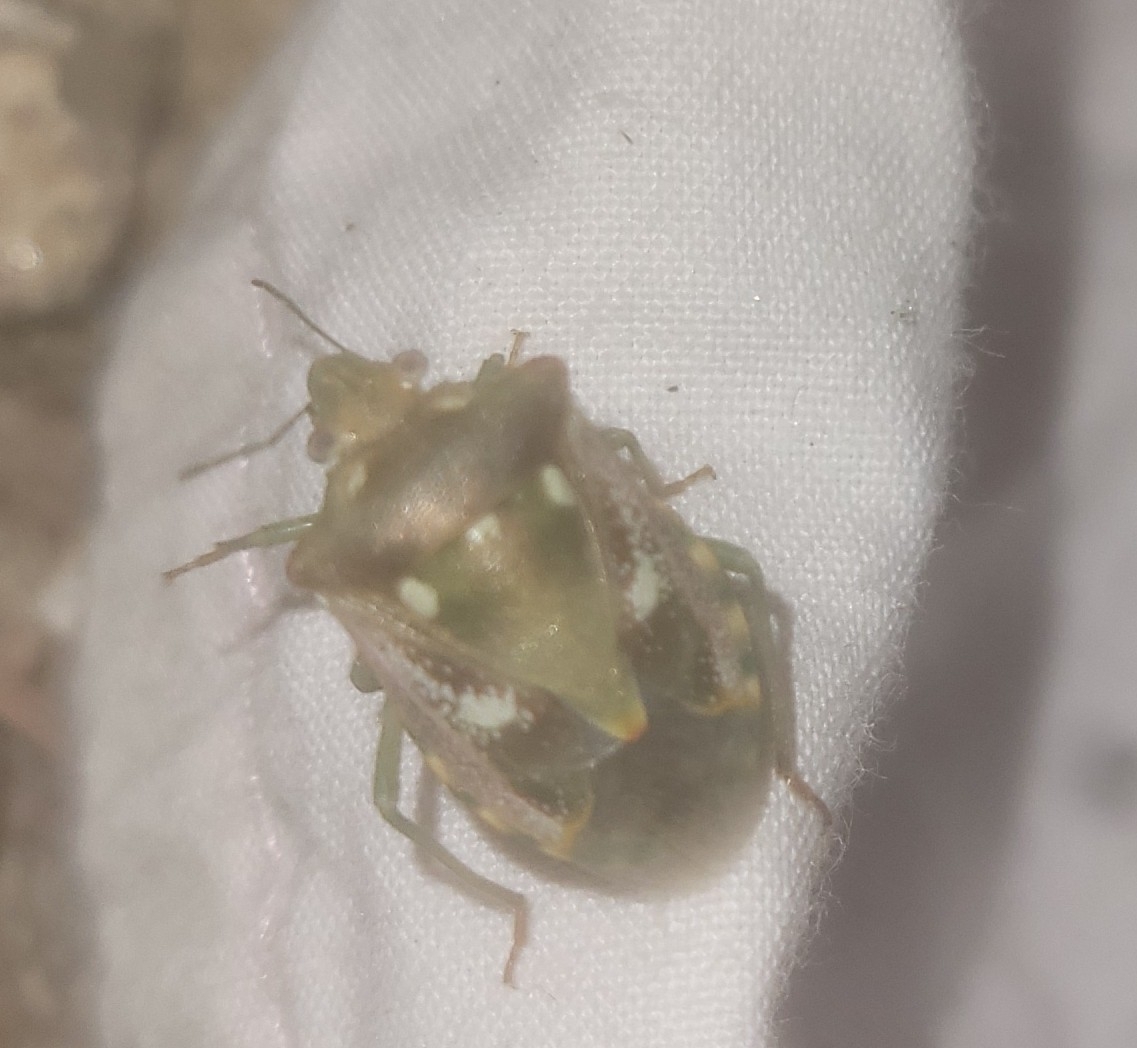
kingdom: Animalia
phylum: Arthropoda
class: Insecta
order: Hemiptera
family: Pentatomidae
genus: Croantha
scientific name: Croantha ornatula
